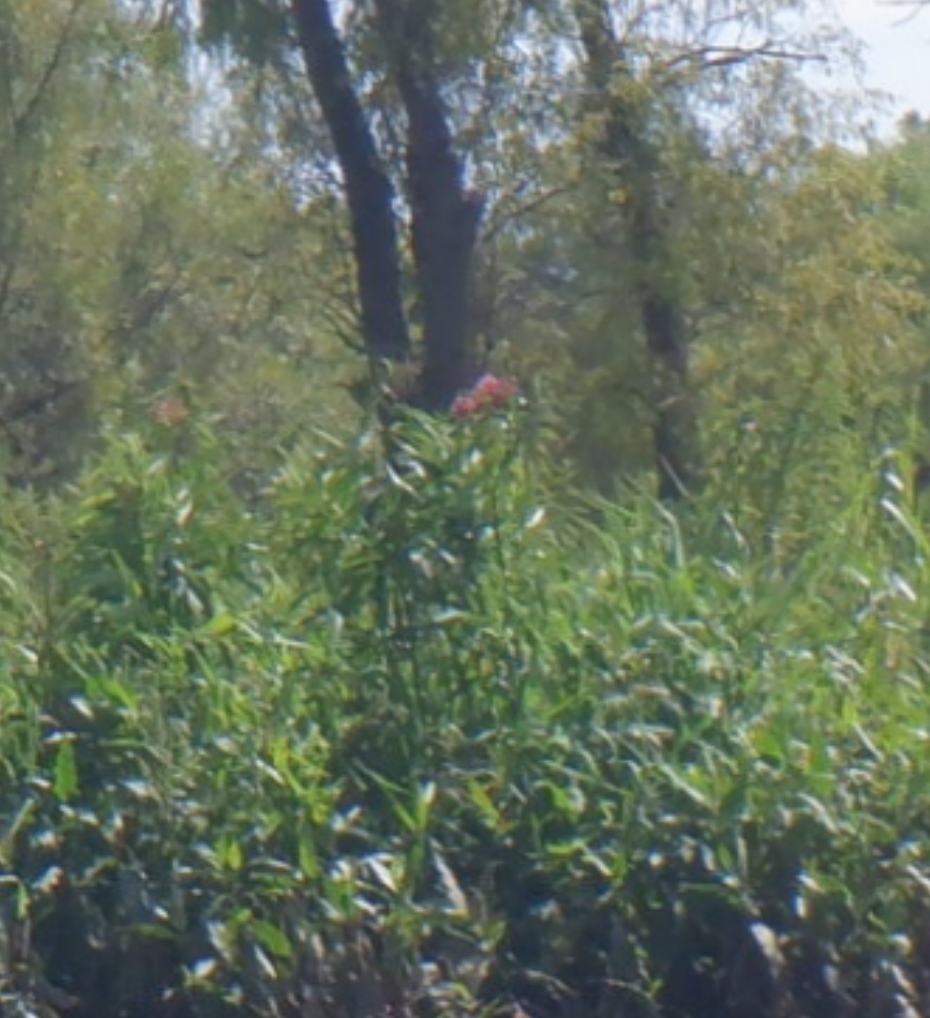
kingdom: Plantae
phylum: Tracheophyta
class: Magnoliopsida
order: Gentianales
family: Apocynaceae
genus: Asclepias
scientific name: Asclepias incarnata
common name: Swamp milkweed
